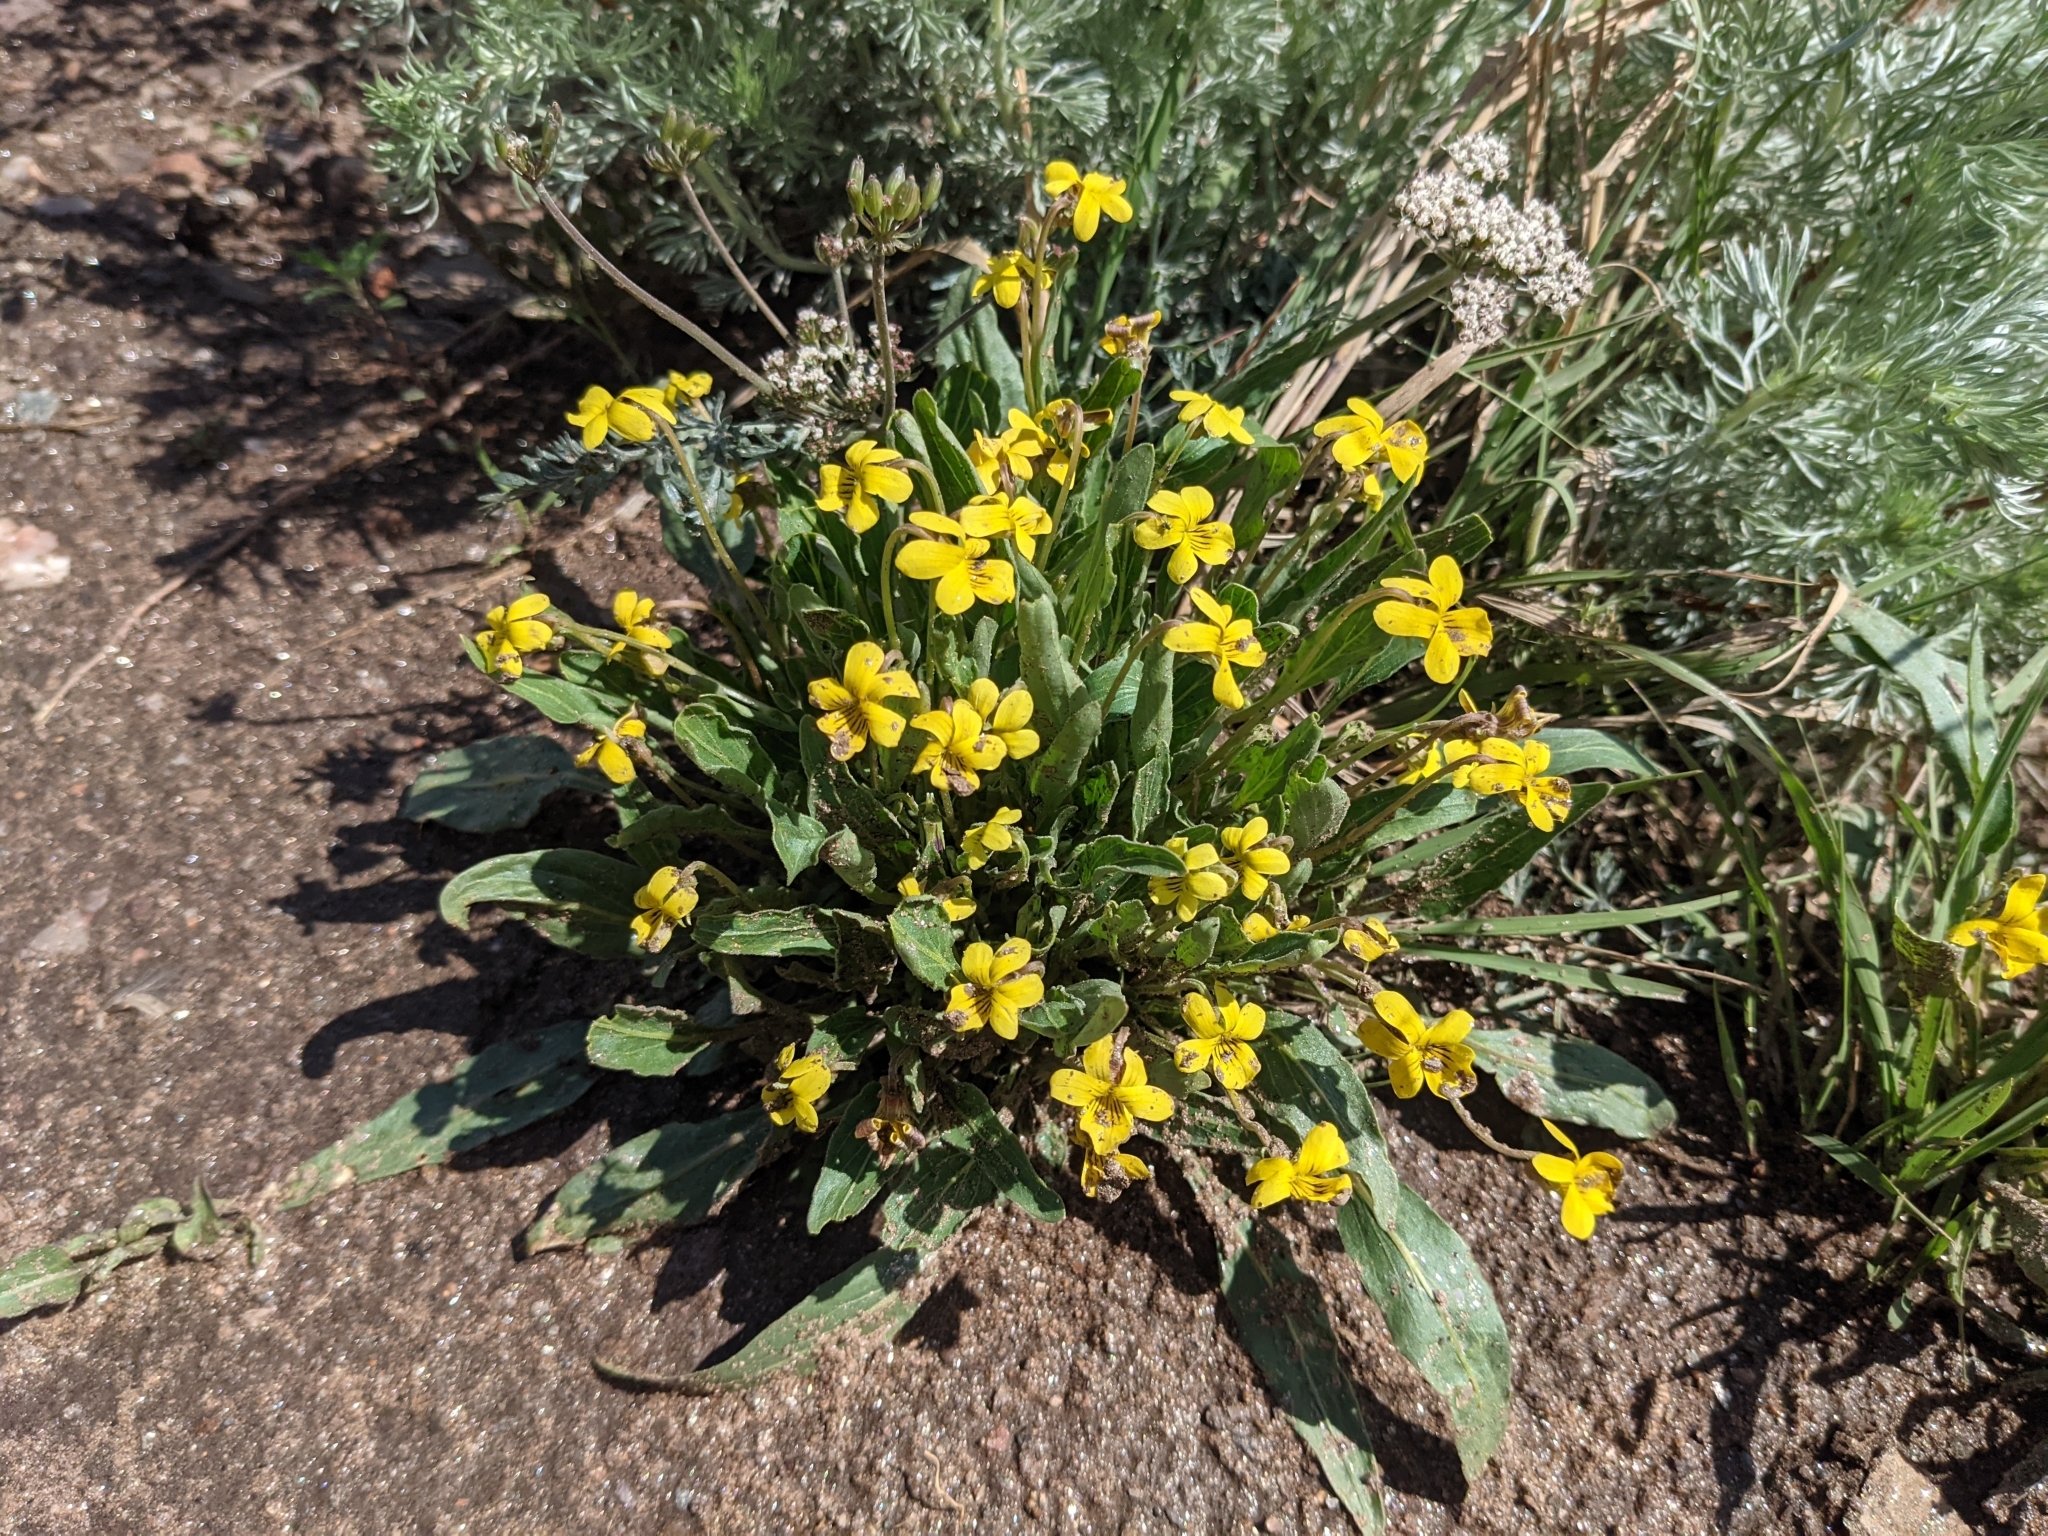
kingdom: Plantae
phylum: Tracheophyta
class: Magnoliopsida
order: Malpighiales
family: Violaceae
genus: Viola
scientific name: Viola nuttallii
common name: Yellow prairie violet
